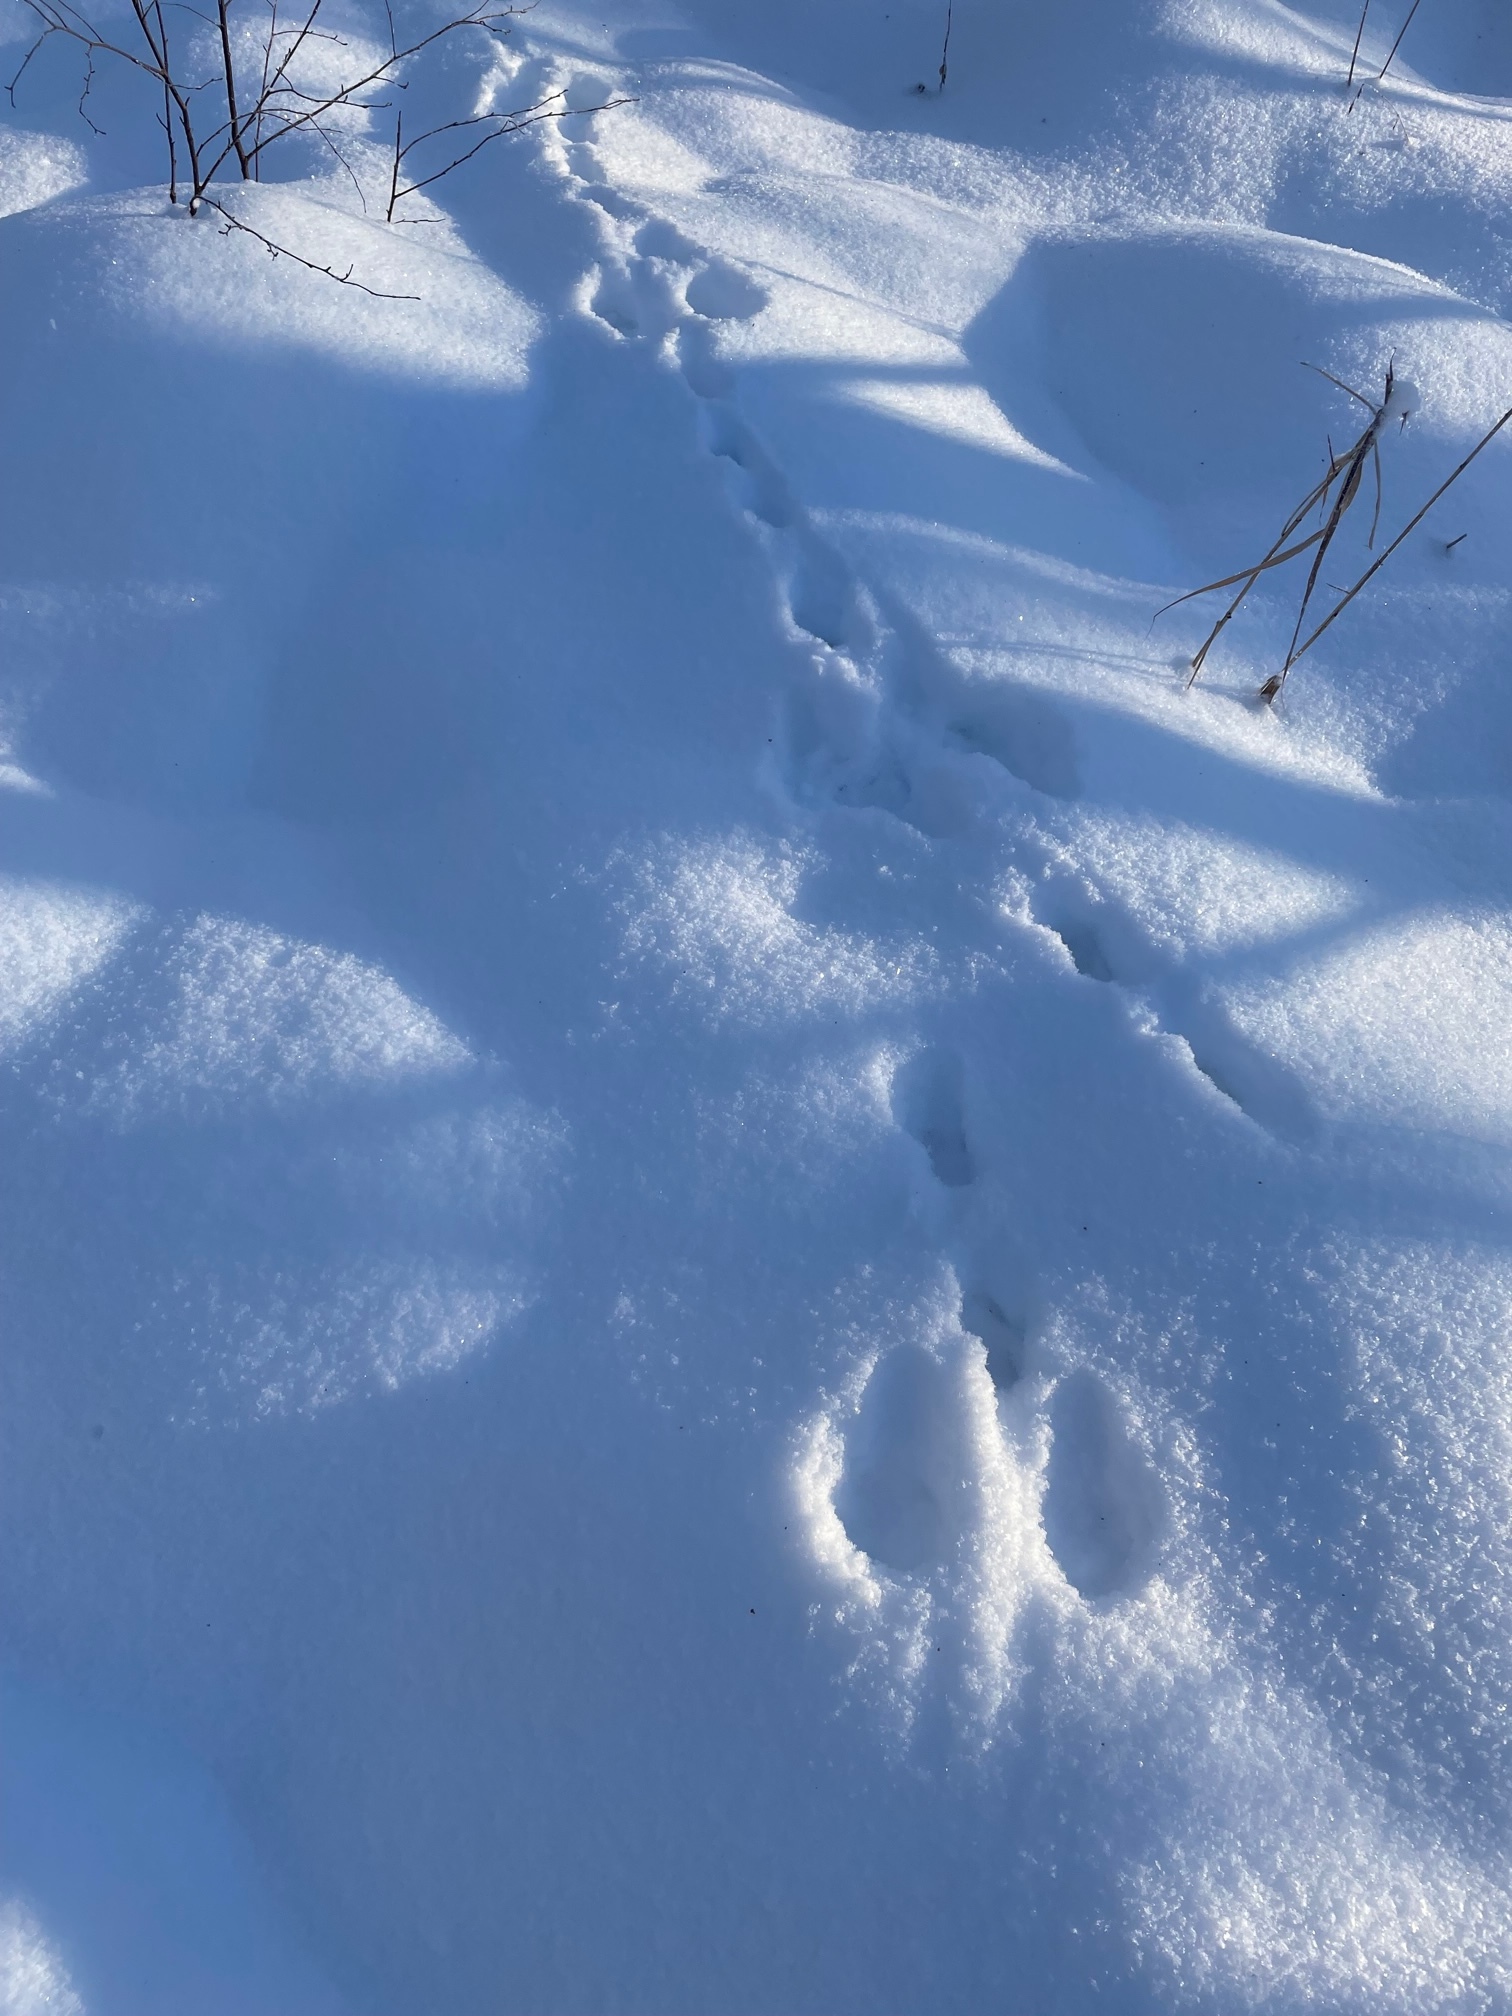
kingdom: Animalia
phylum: Chordata
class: Mammalia
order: Lagomorpha
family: Leporidae
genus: Lepus
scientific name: Lepus timidus
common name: Mountain hare
